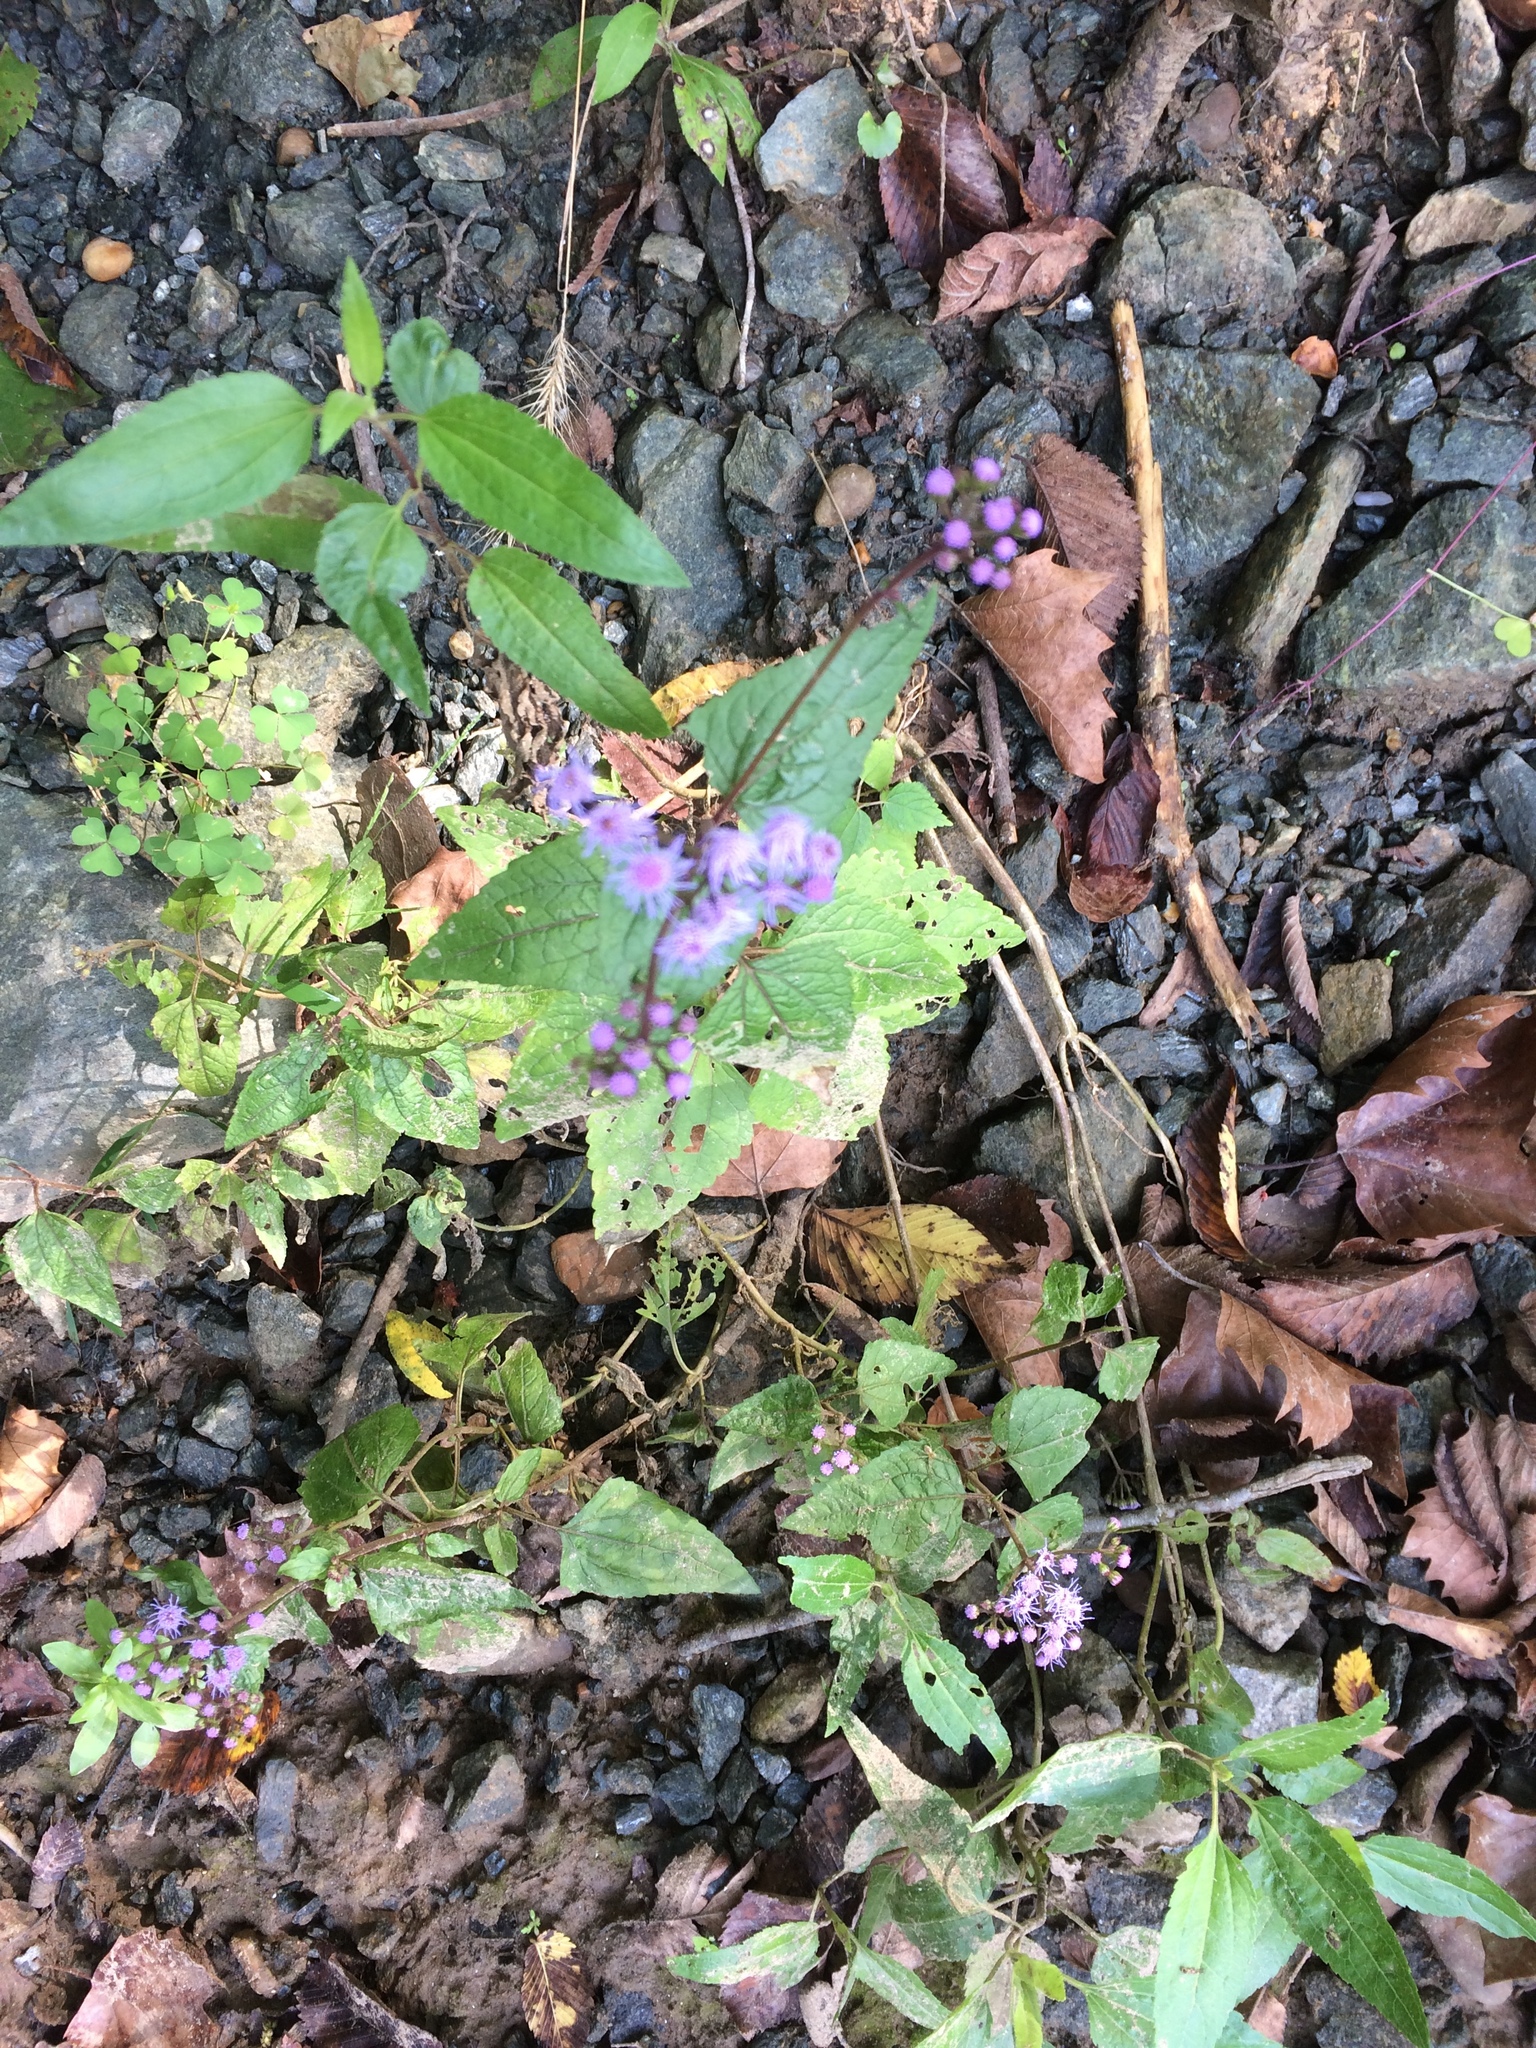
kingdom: Plantae
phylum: Tracheophyta
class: Magnoliopsida
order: Asterales
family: Asteraceae
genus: Conoclinium
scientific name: Conoclinium coelestinum
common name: Blue mistflower
